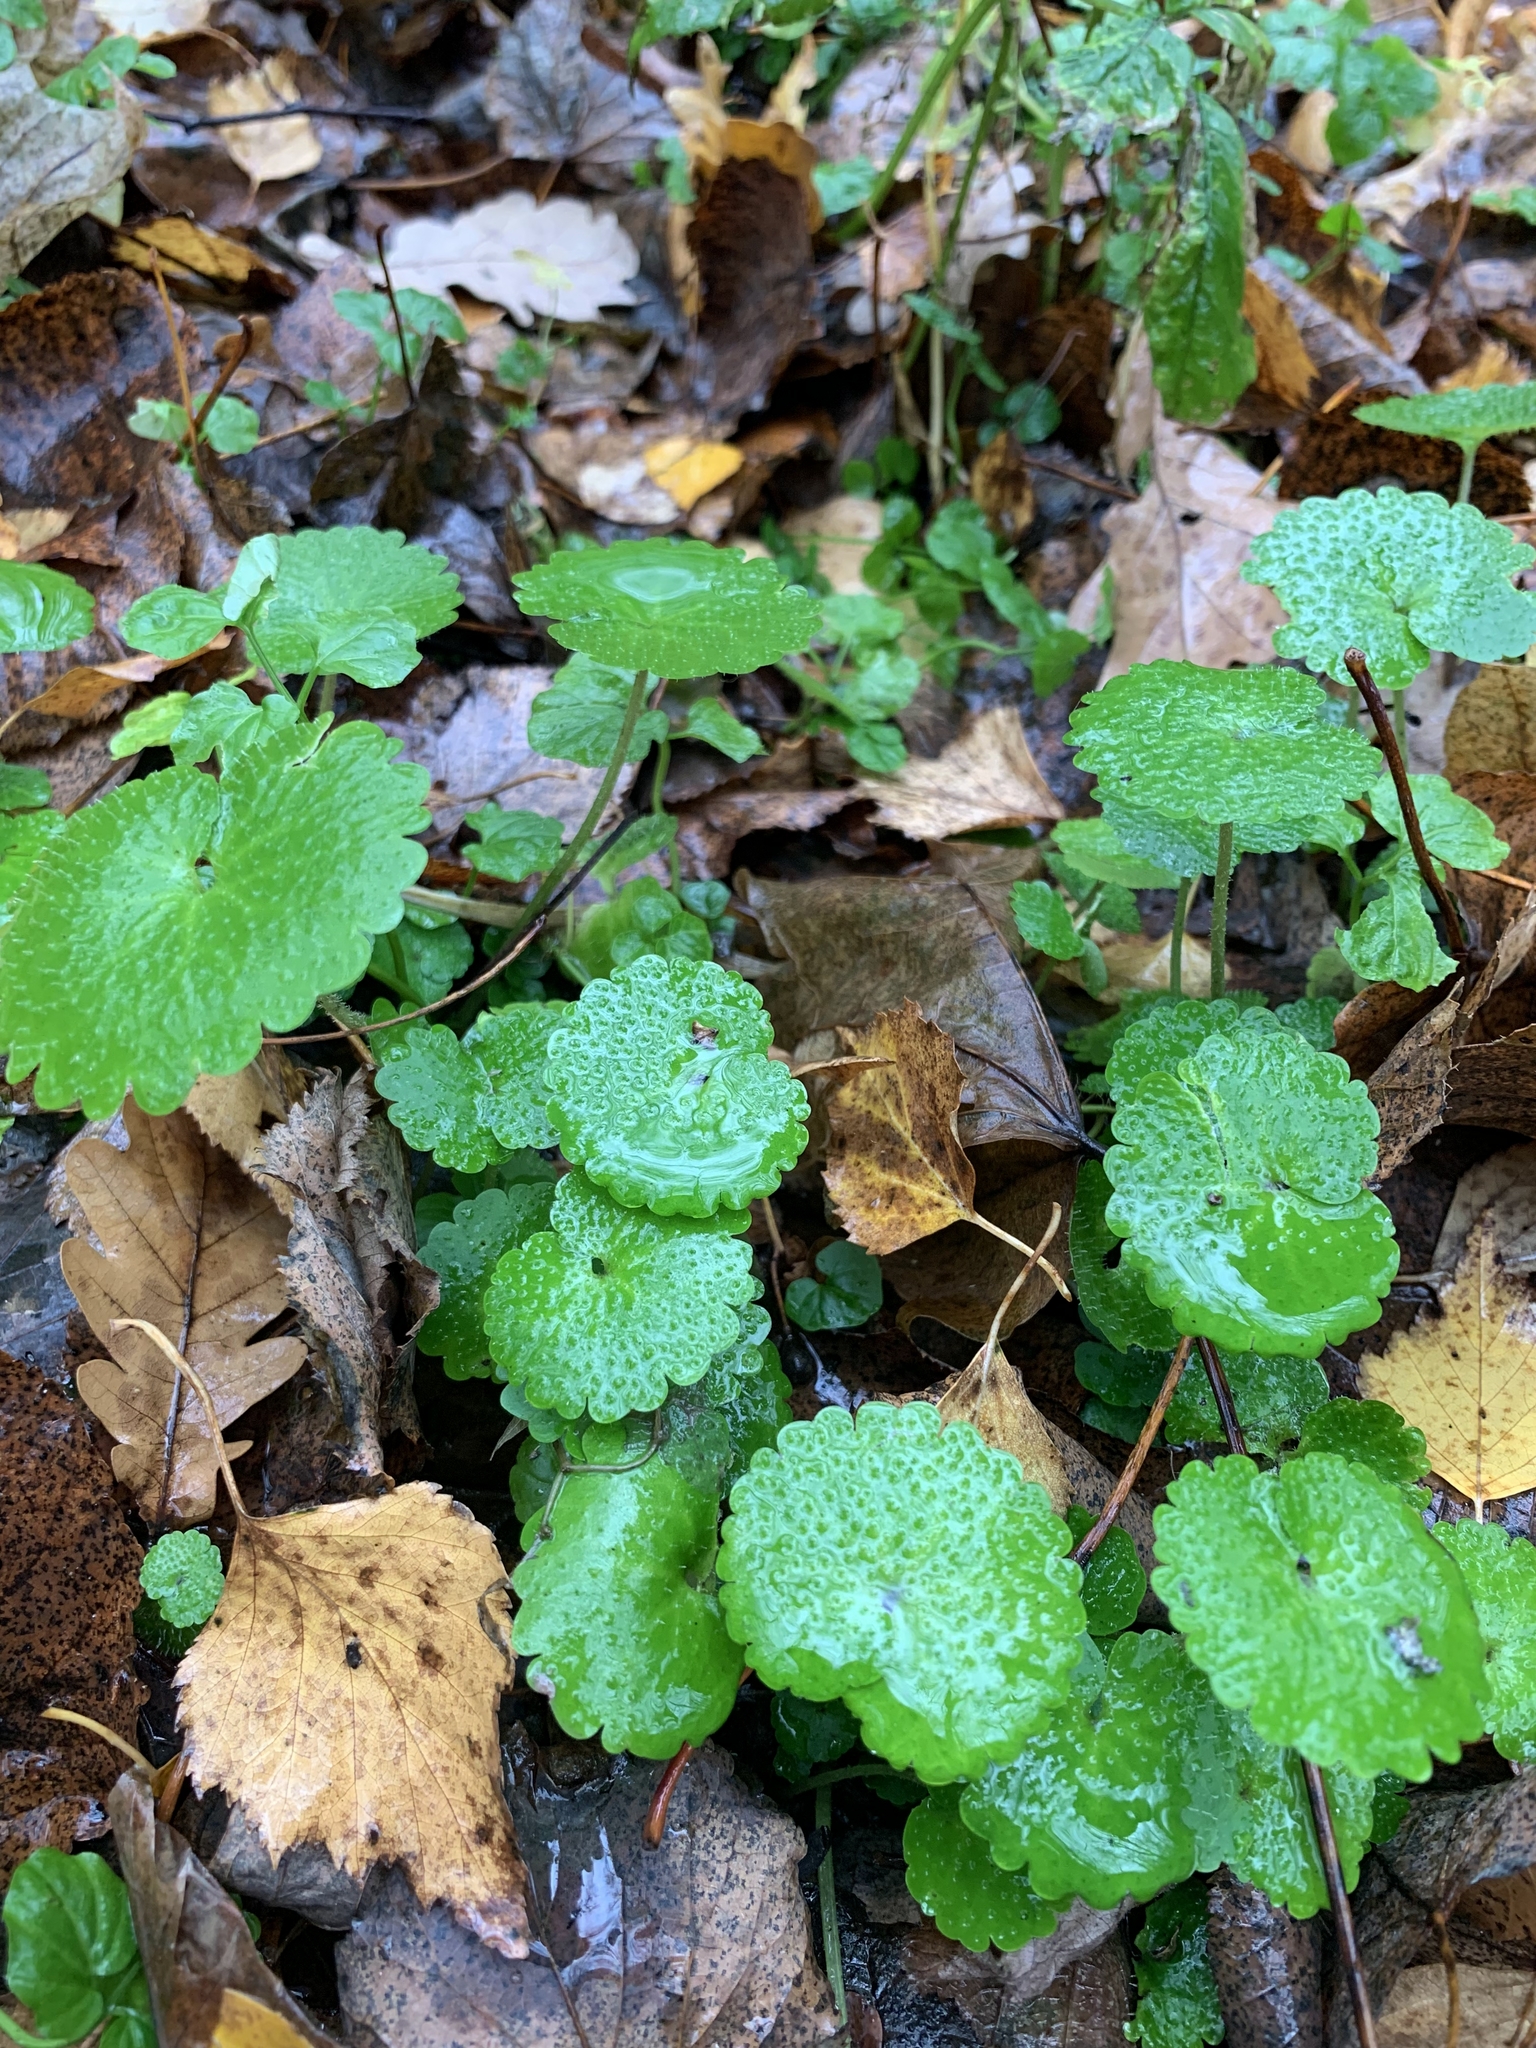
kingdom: Plantae
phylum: Tracheophyta
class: Magnoliopsida
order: Saxifragales
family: Saxifragaceae
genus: Chrysosplenium
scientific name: Chrysosplenium alternifolium
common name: Alternate-leaved golden-saxifrage
